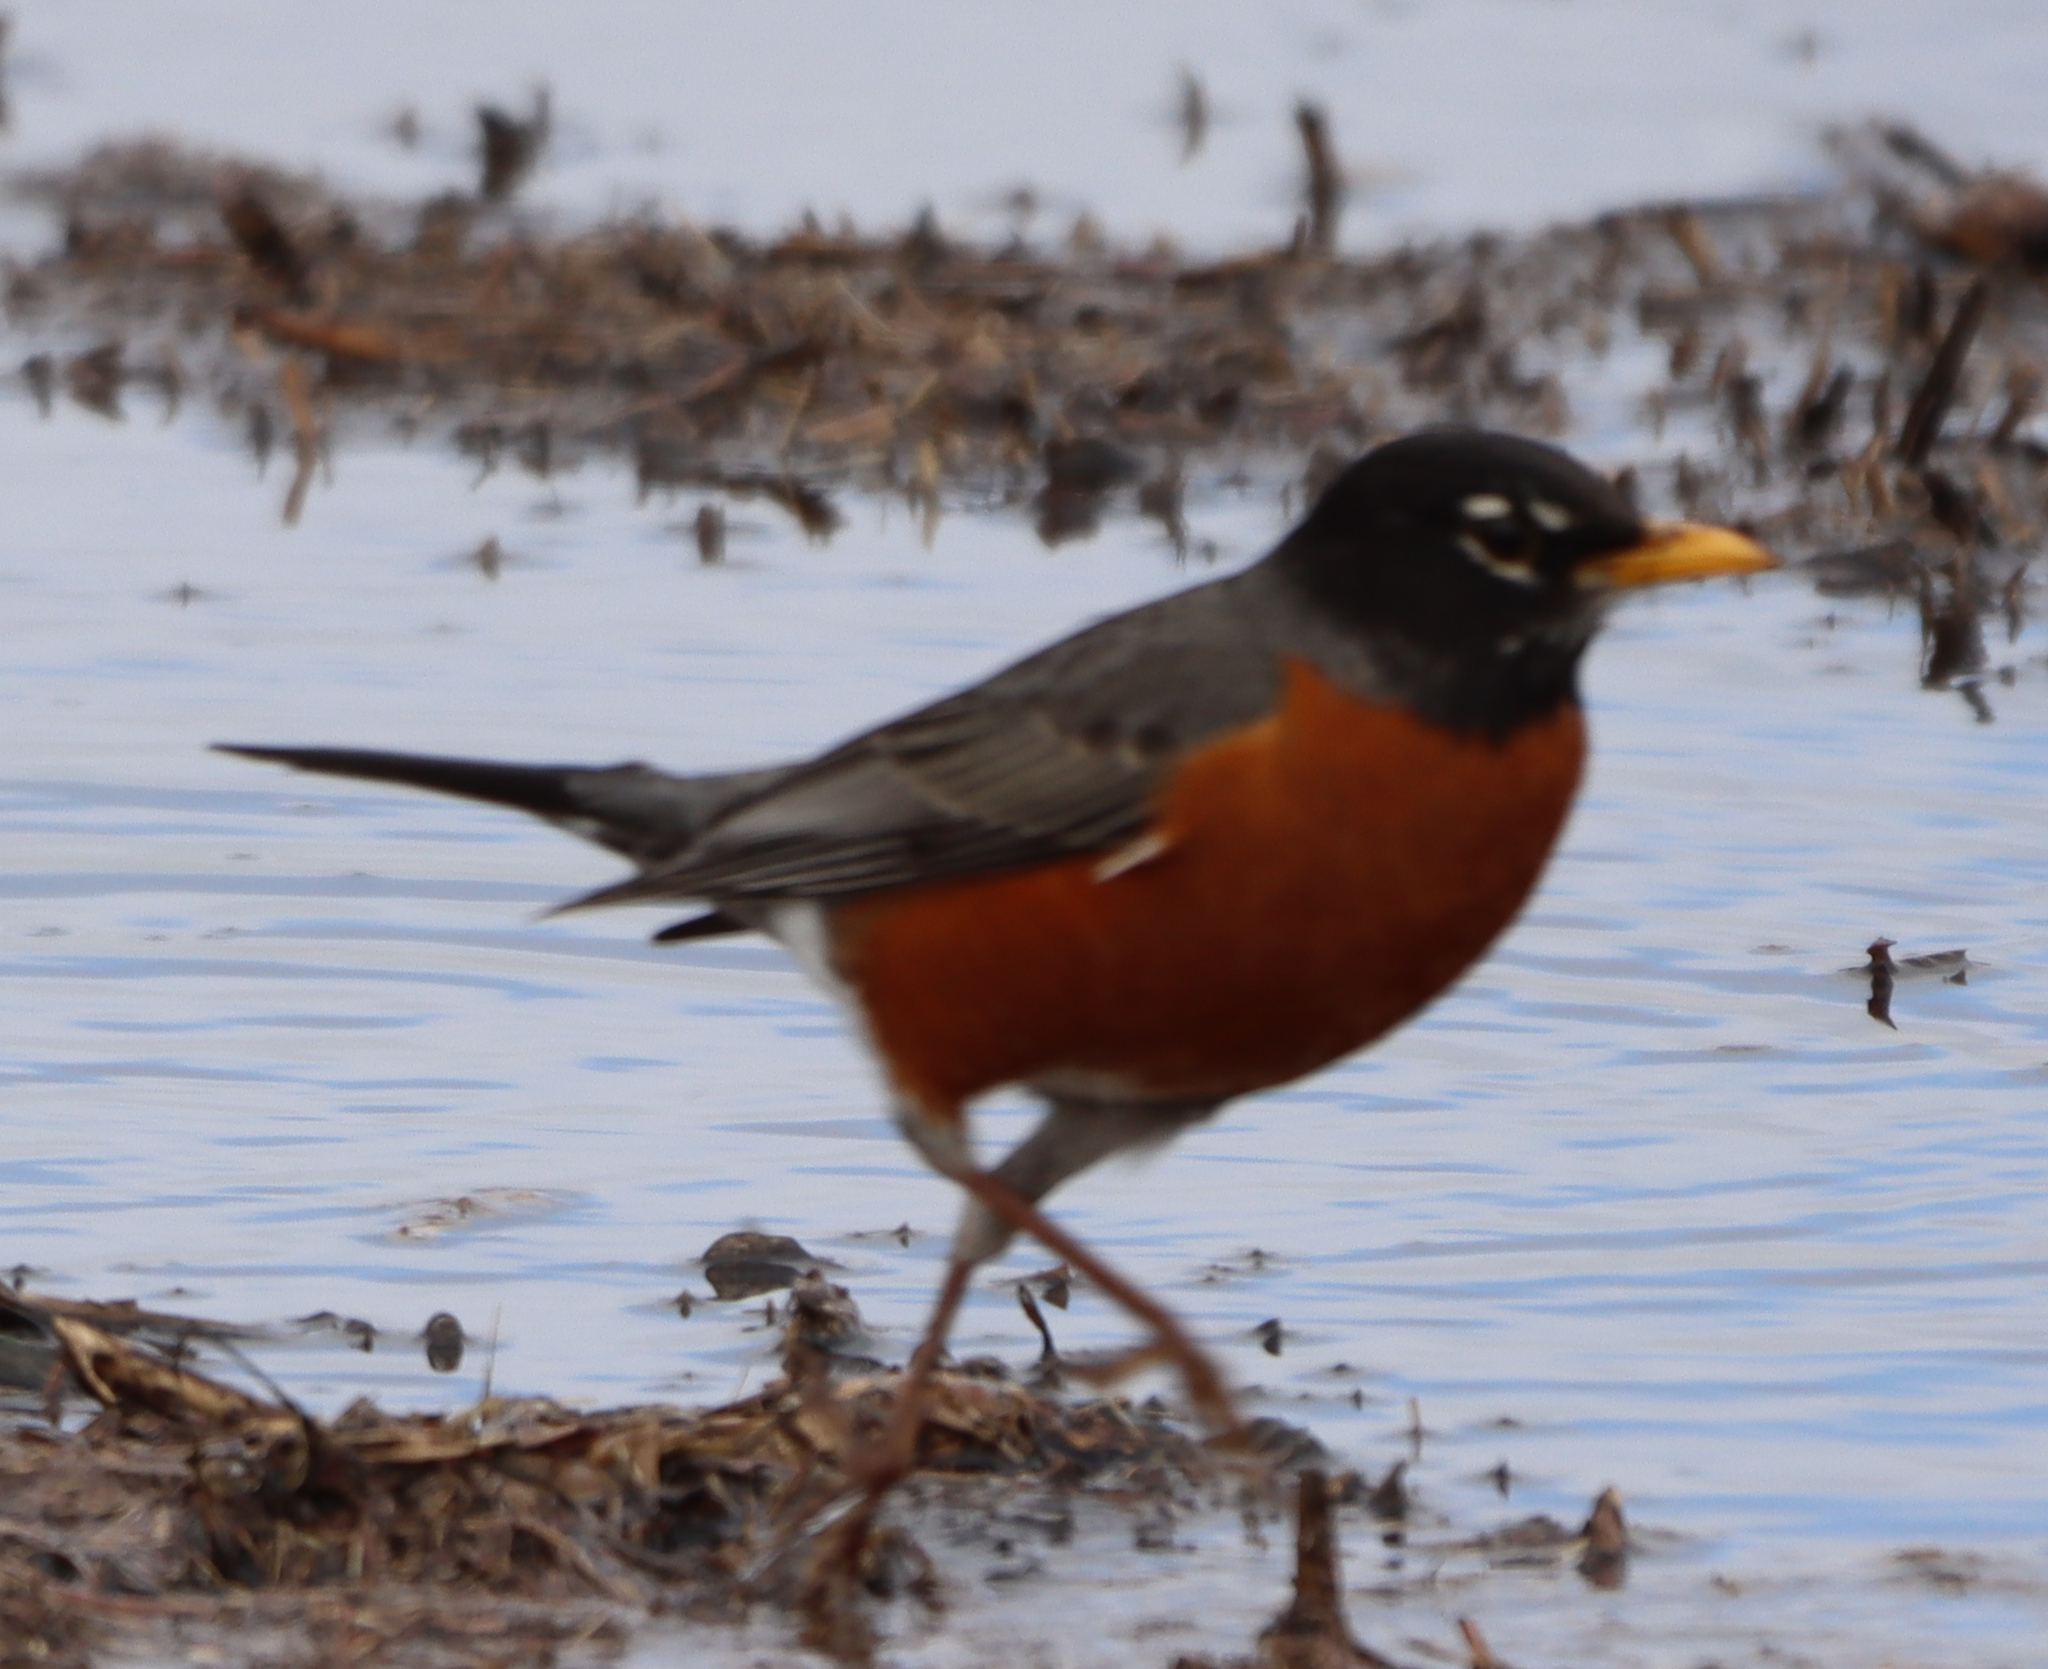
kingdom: Animalia
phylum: Chordata
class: Aves
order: Passeriformes
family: Turdidae
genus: Turdus
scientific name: Turdus migratorius
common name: American robin
